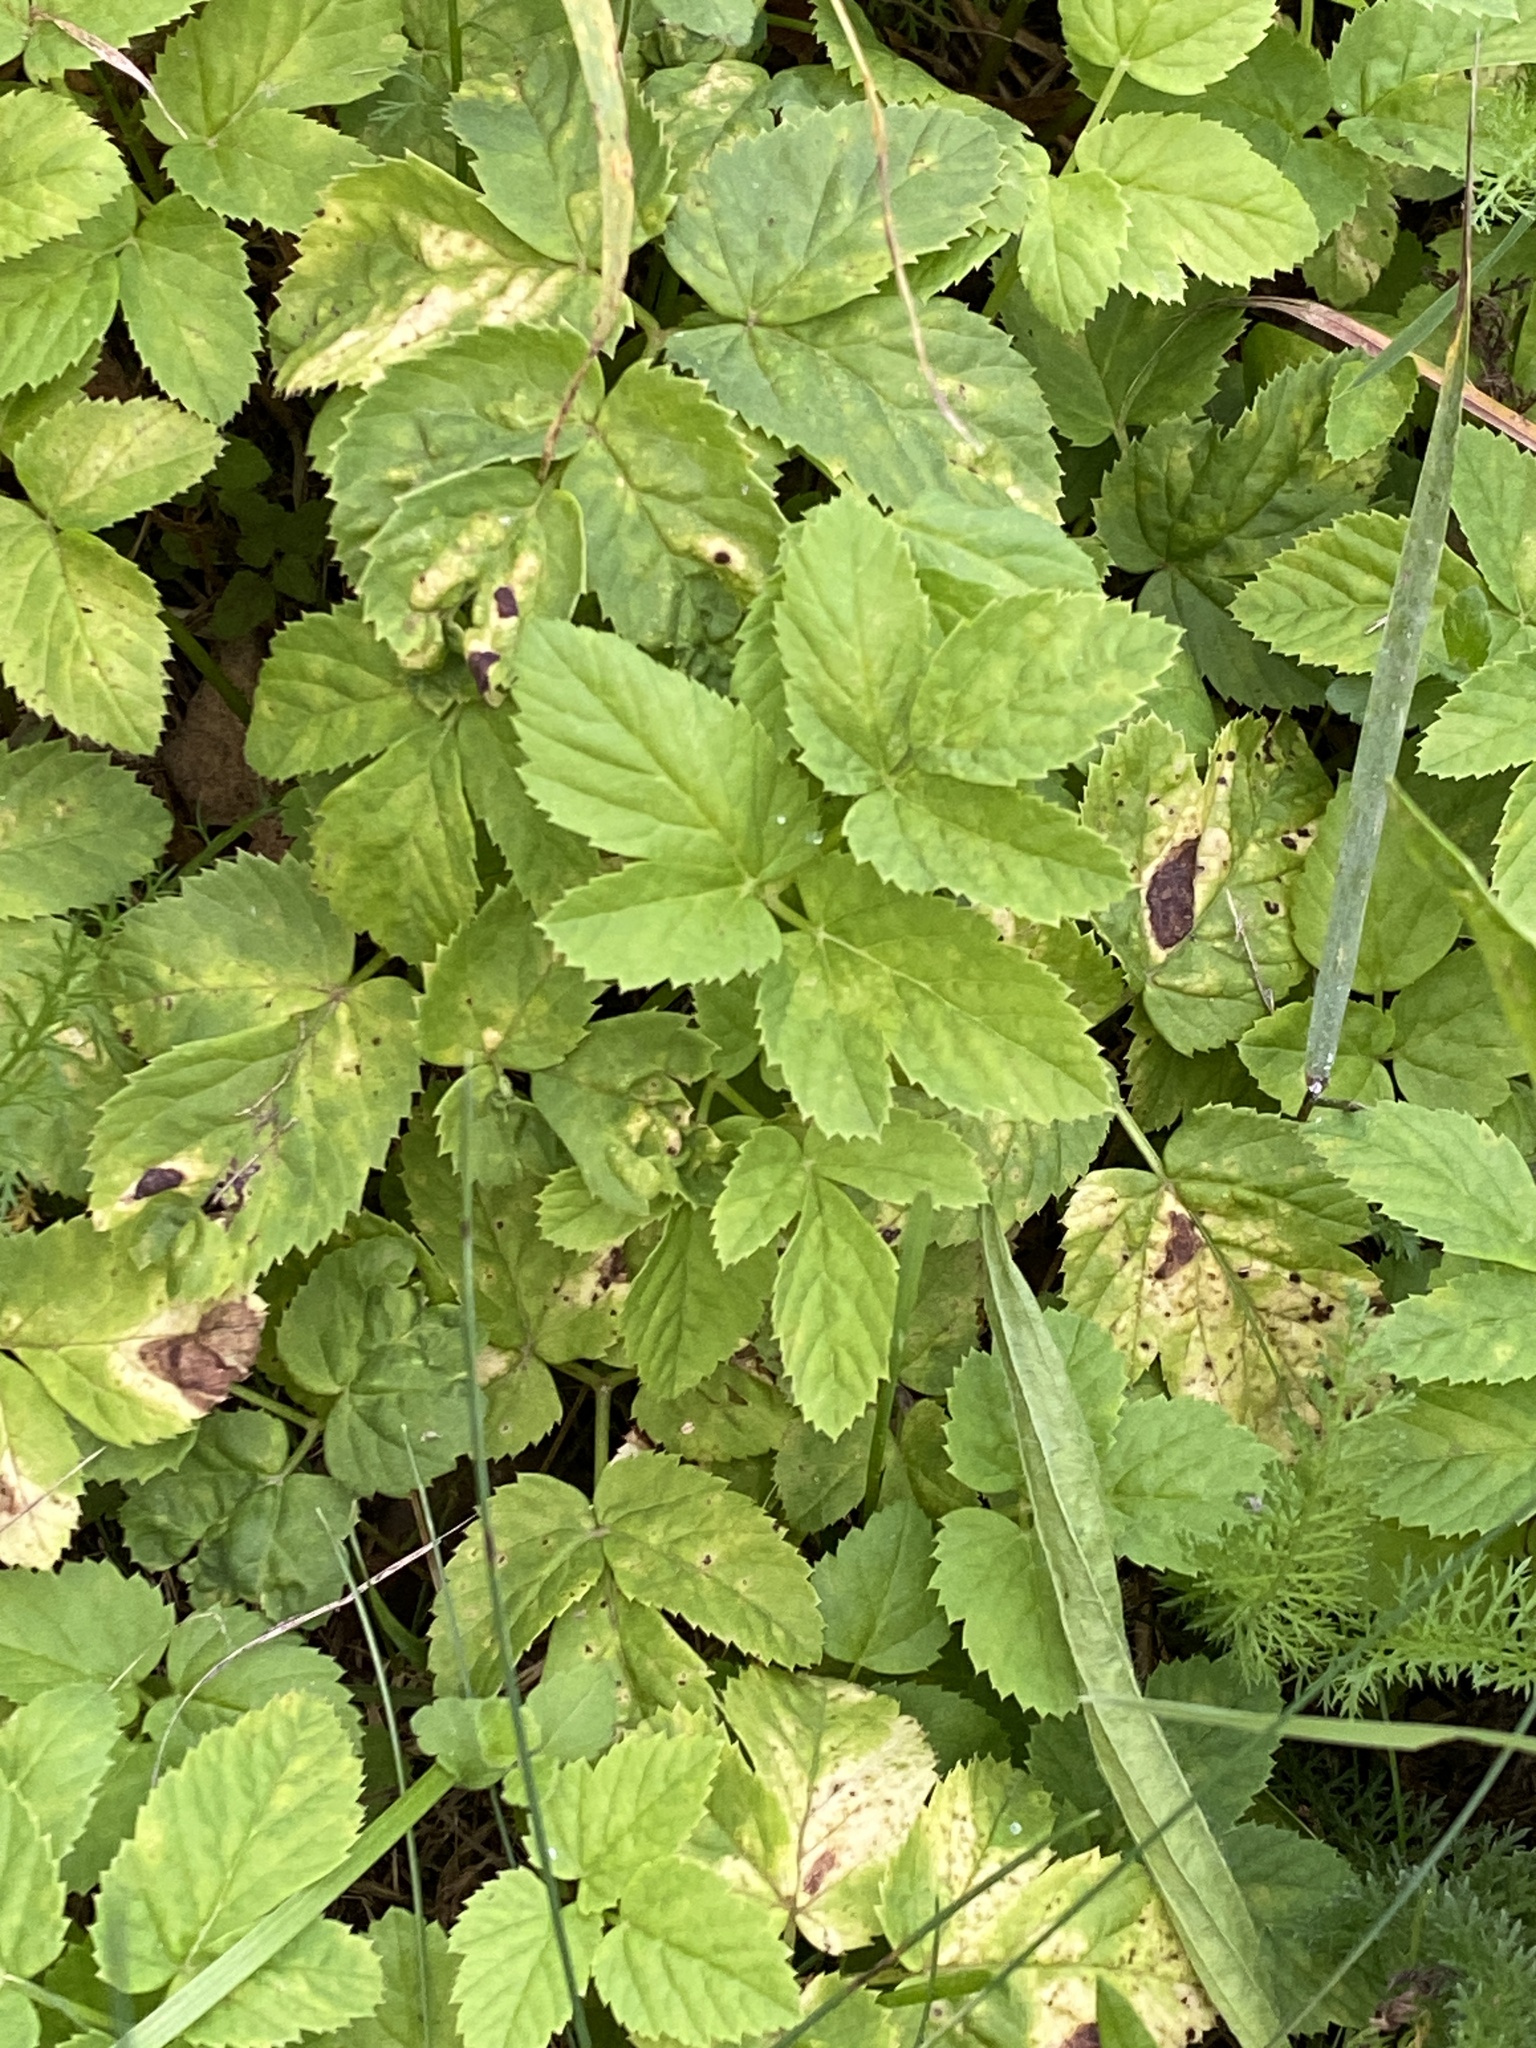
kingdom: Plantae
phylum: Tracheophyta
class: Magnoliopsida
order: Apiales
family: Apiaceae
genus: Aegopodium
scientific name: Aegopodium podagraria
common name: Ground-elder
